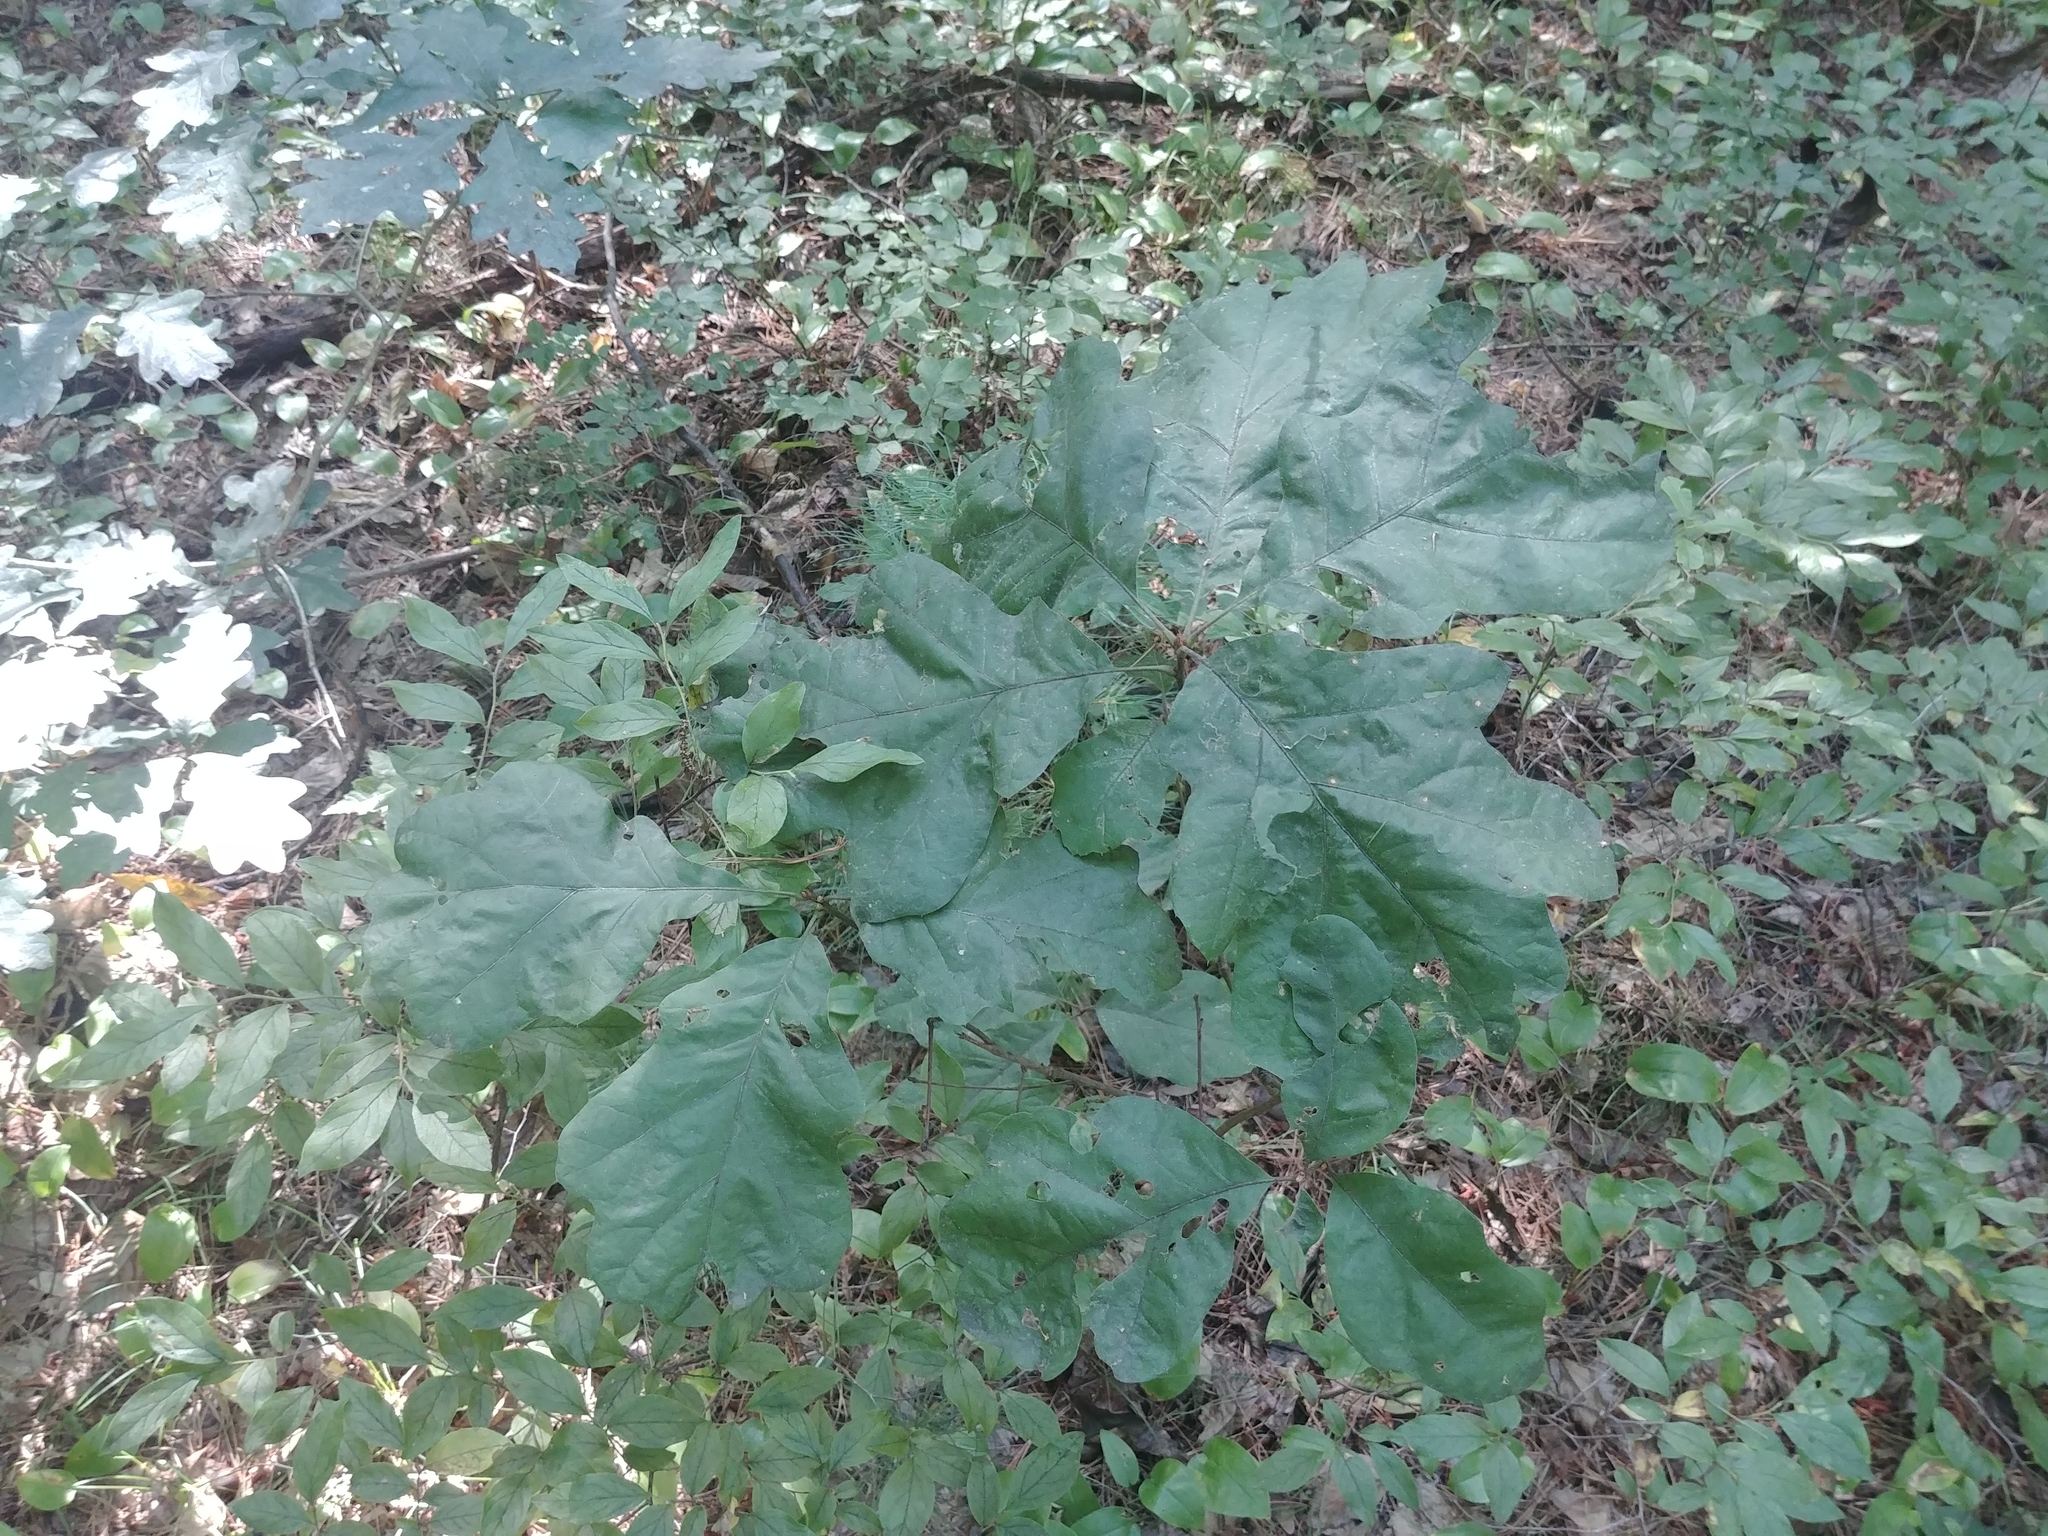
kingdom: Plantae
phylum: Tracheophyta
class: Magnoliopsida
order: Fagales
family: Fagaceae
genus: Quercus
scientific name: Quercus
